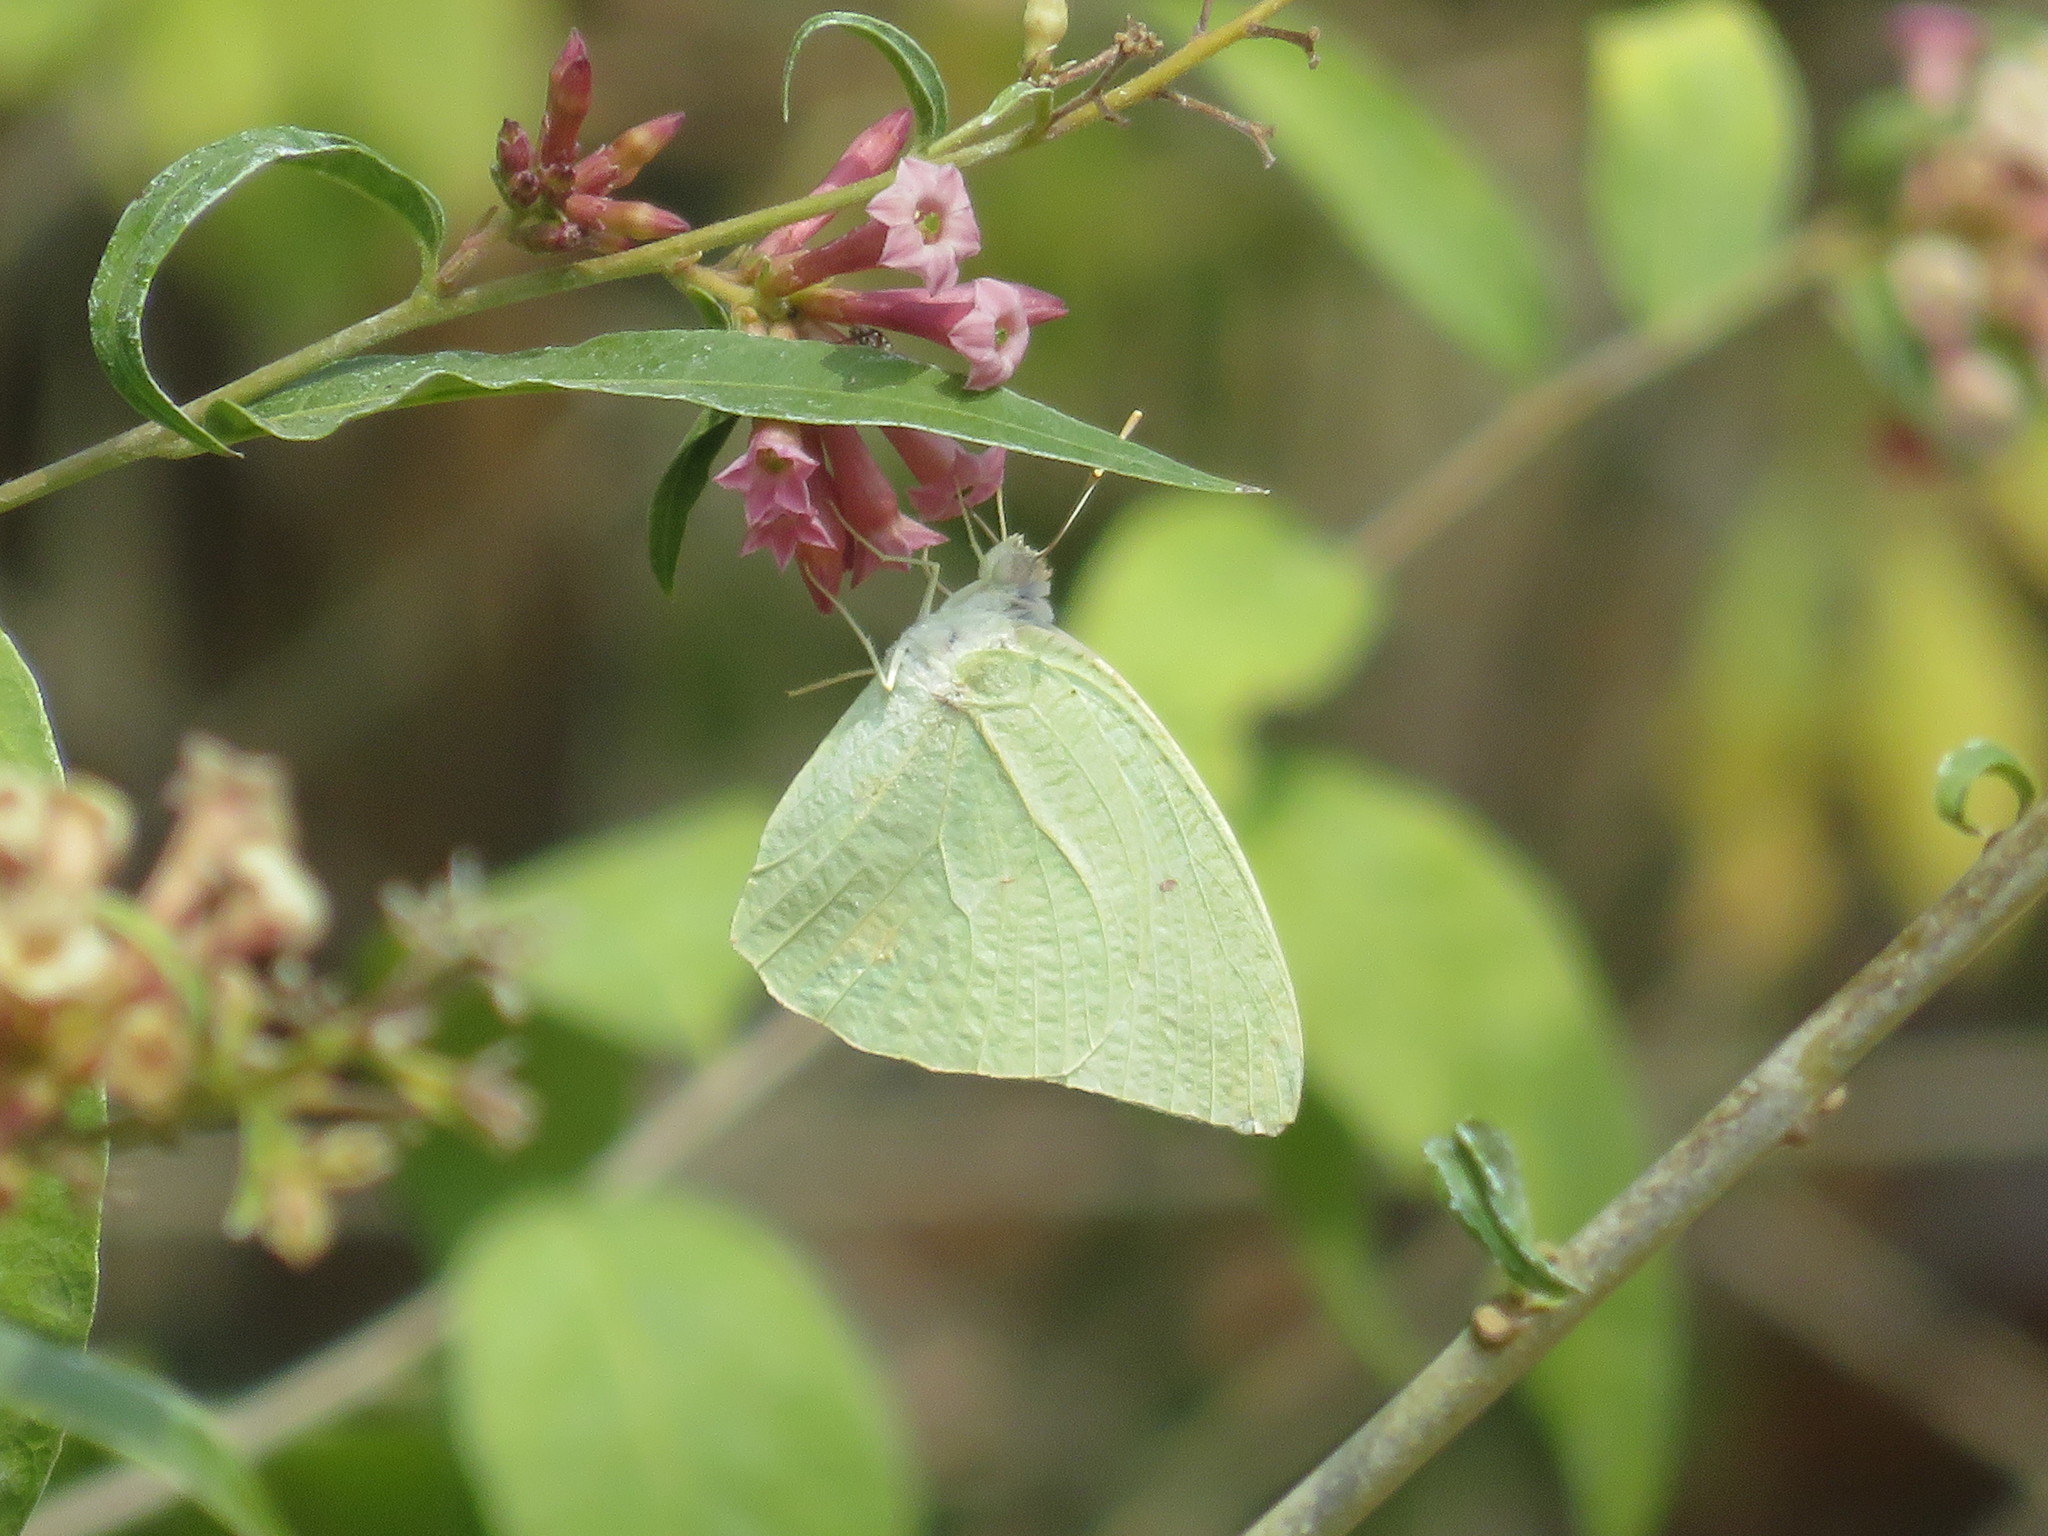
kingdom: Animalia
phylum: Arthropoda
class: Insecta
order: Lepidoptera
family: Pieridae
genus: Catopsilia
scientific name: Catopsilia florella
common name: African migrant
